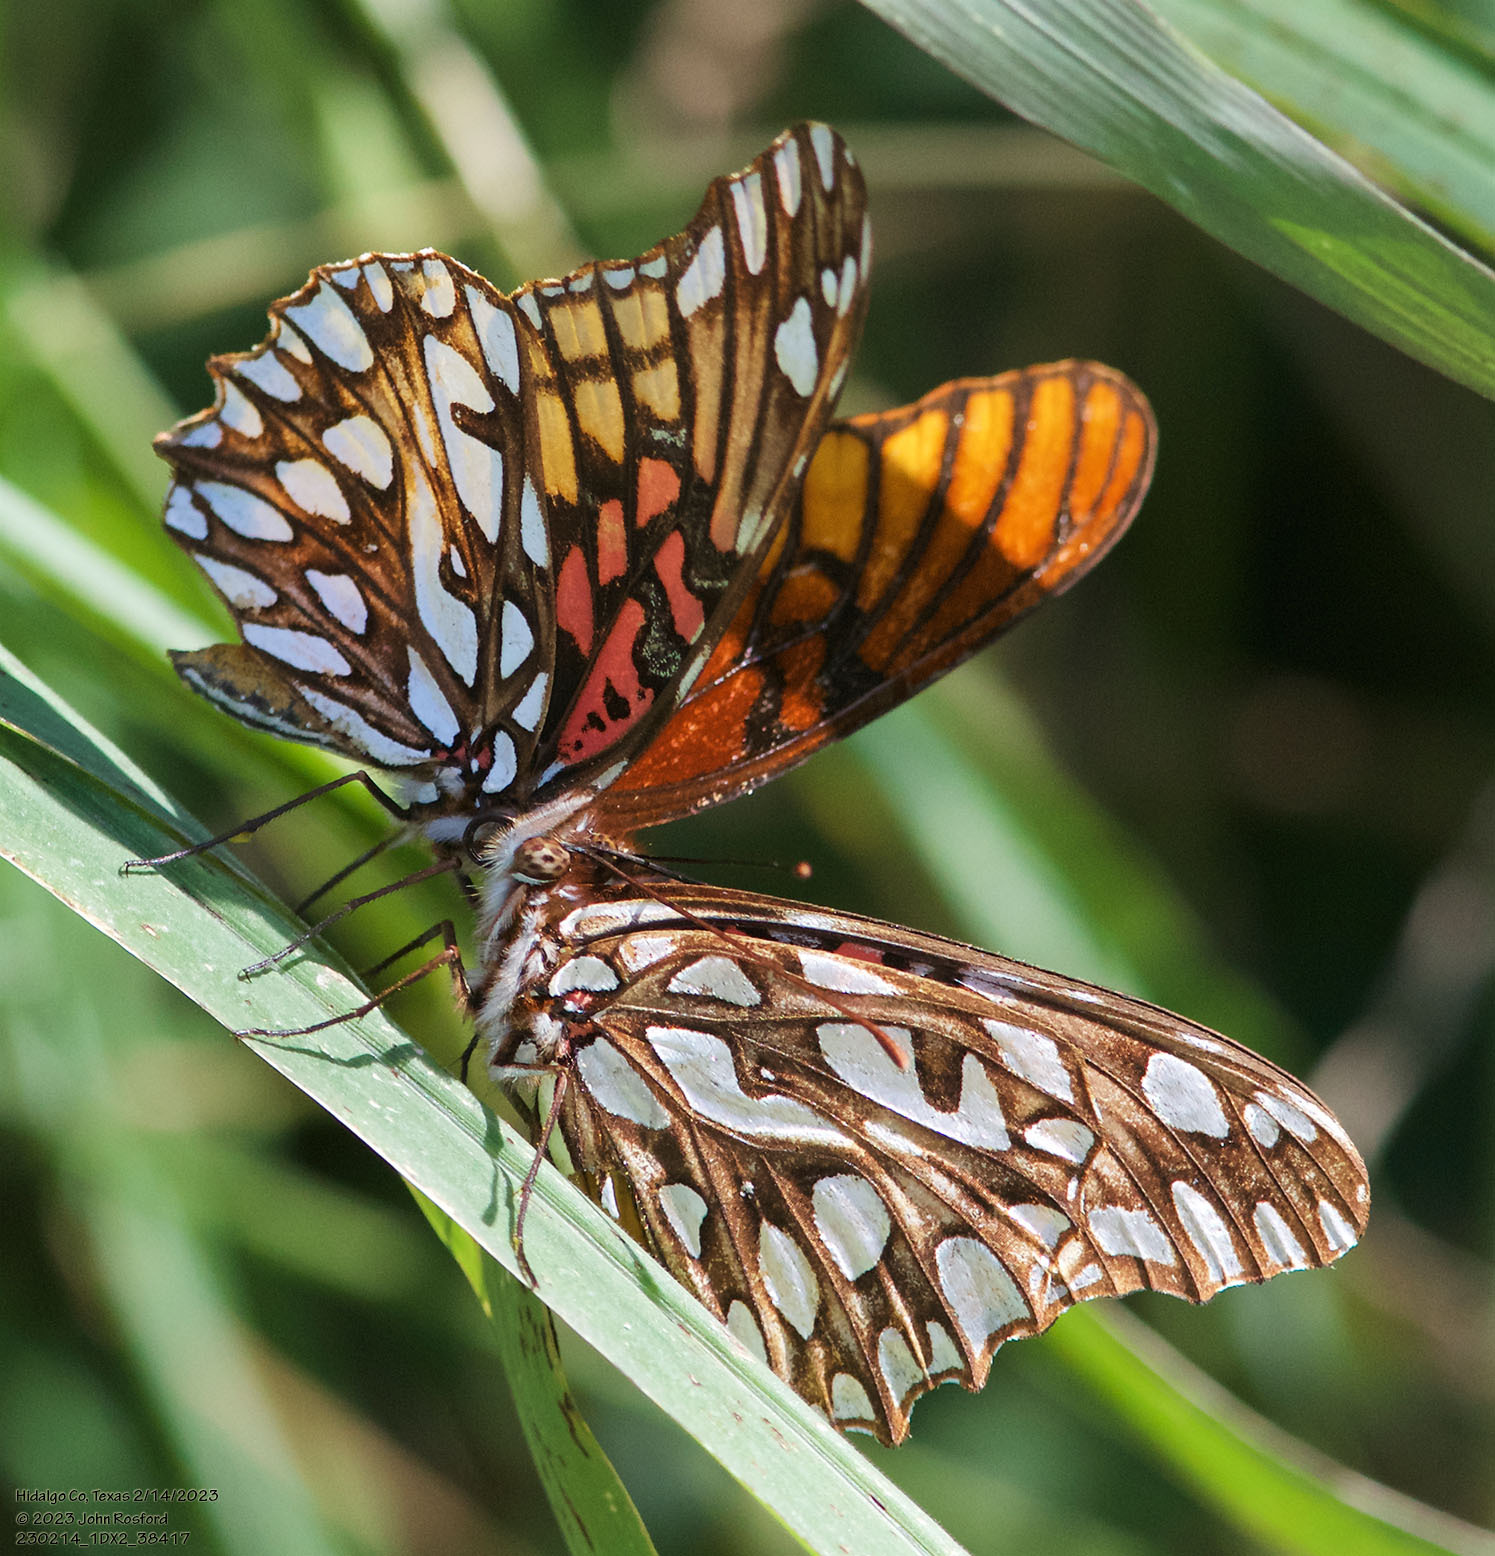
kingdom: Animalia
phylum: Arthropoda
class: Insecta
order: Lepidoptera
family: Nymphalidae
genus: Dione
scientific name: Dione moneta
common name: Mexican silverspot
